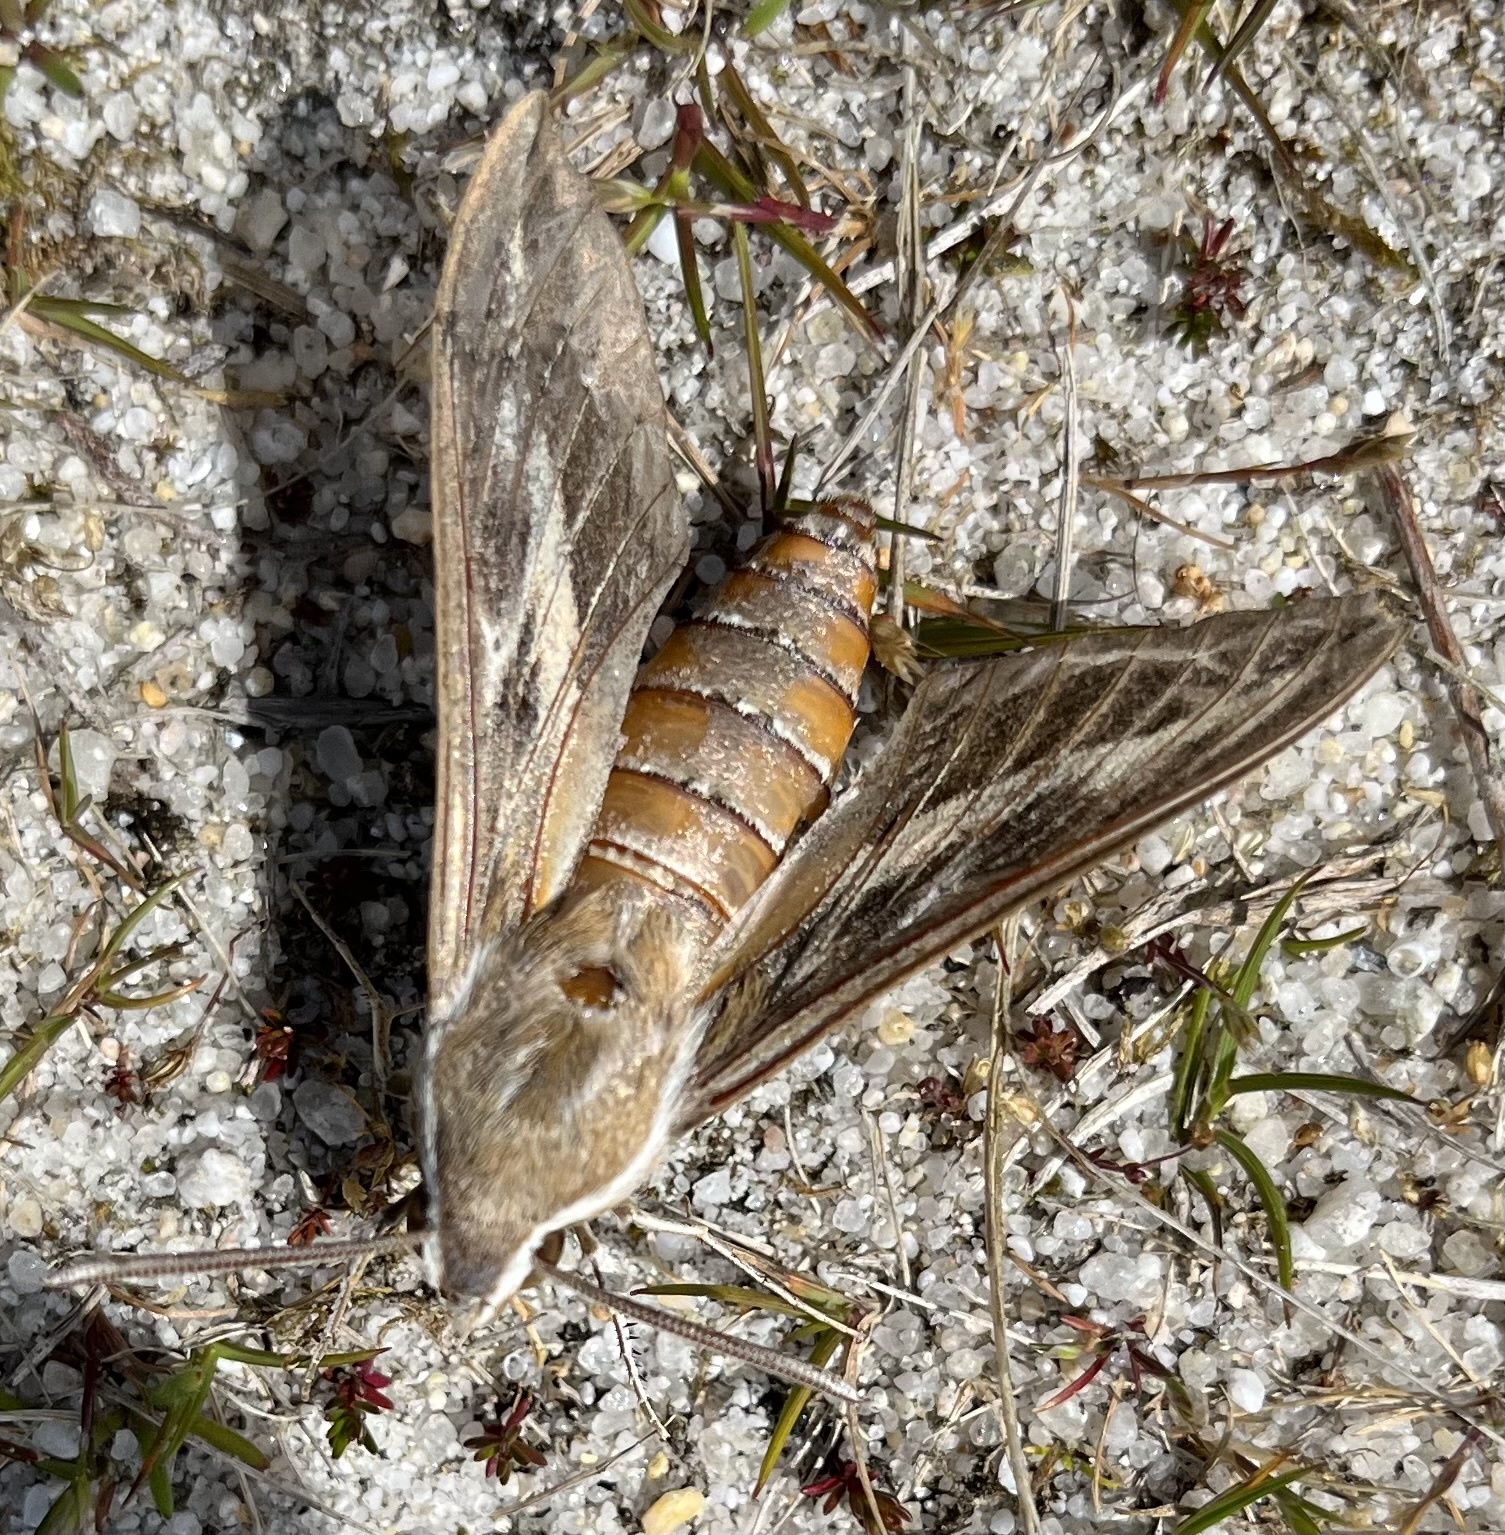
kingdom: Animalia
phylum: Arthropoda
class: Insecta
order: Lepidoptera
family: Sphingidae
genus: Hyles
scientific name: Hyles livornica
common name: Striped hawk-moth
